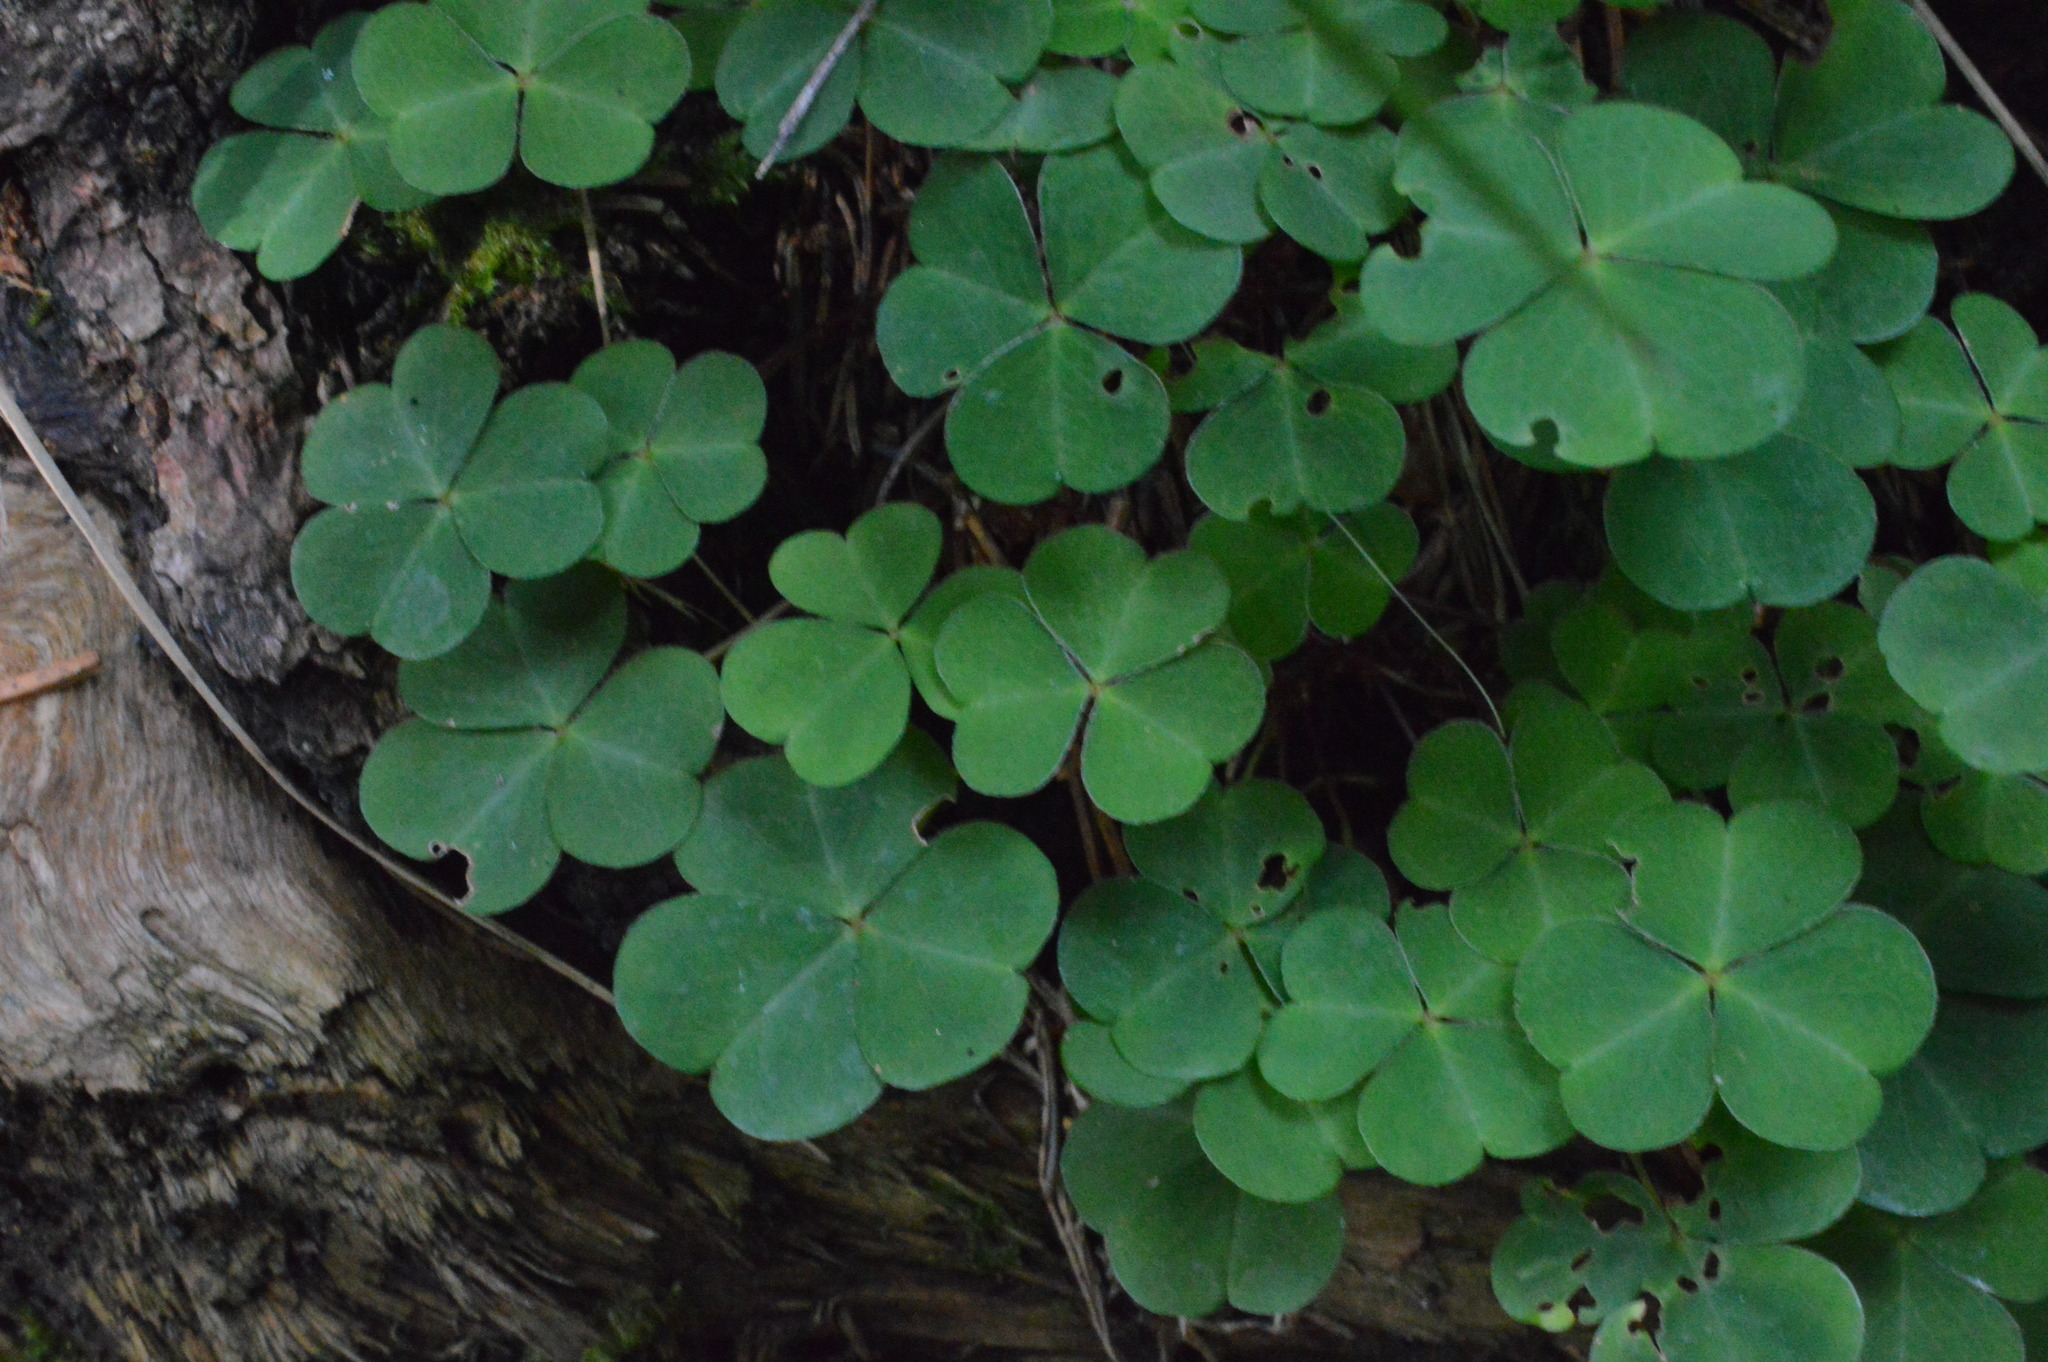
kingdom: Plantae
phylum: Tracheophyta
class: Magnoliopsida
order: Oxalidales
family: Oxalidaceae
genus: Oxalis
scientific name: Oxalis acetosella
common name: Wood-sorrel
